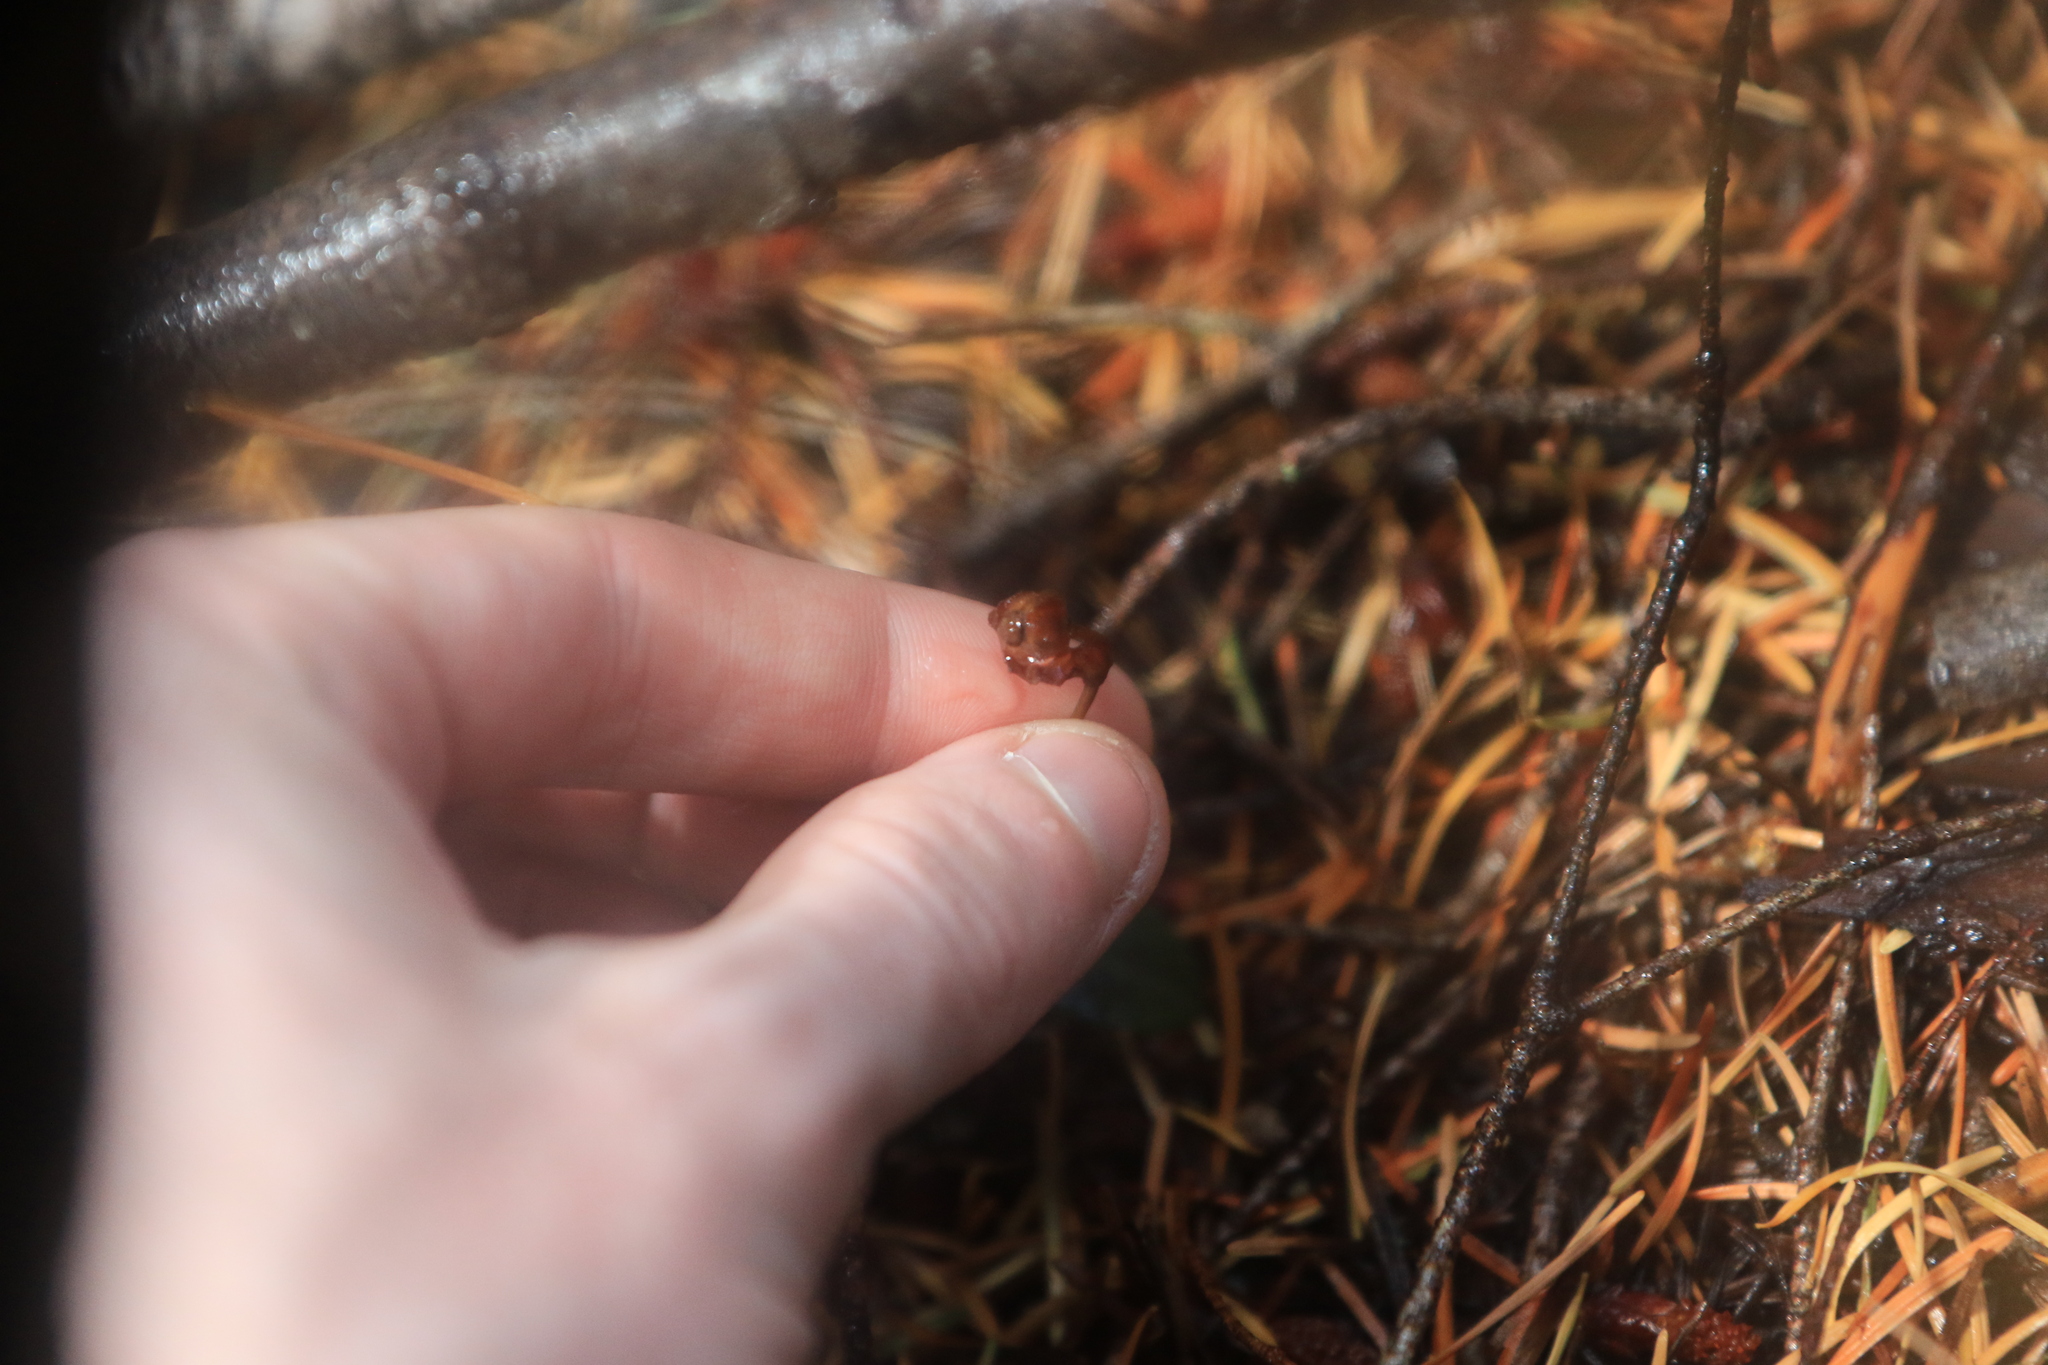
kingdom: Plantae
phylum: Tracheophyta
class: Magnoliopsida
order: Ericales
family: Ericaceae
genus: Chimaphila
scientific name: Chimaphila menziesii
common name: Menzies' pipsissewa
